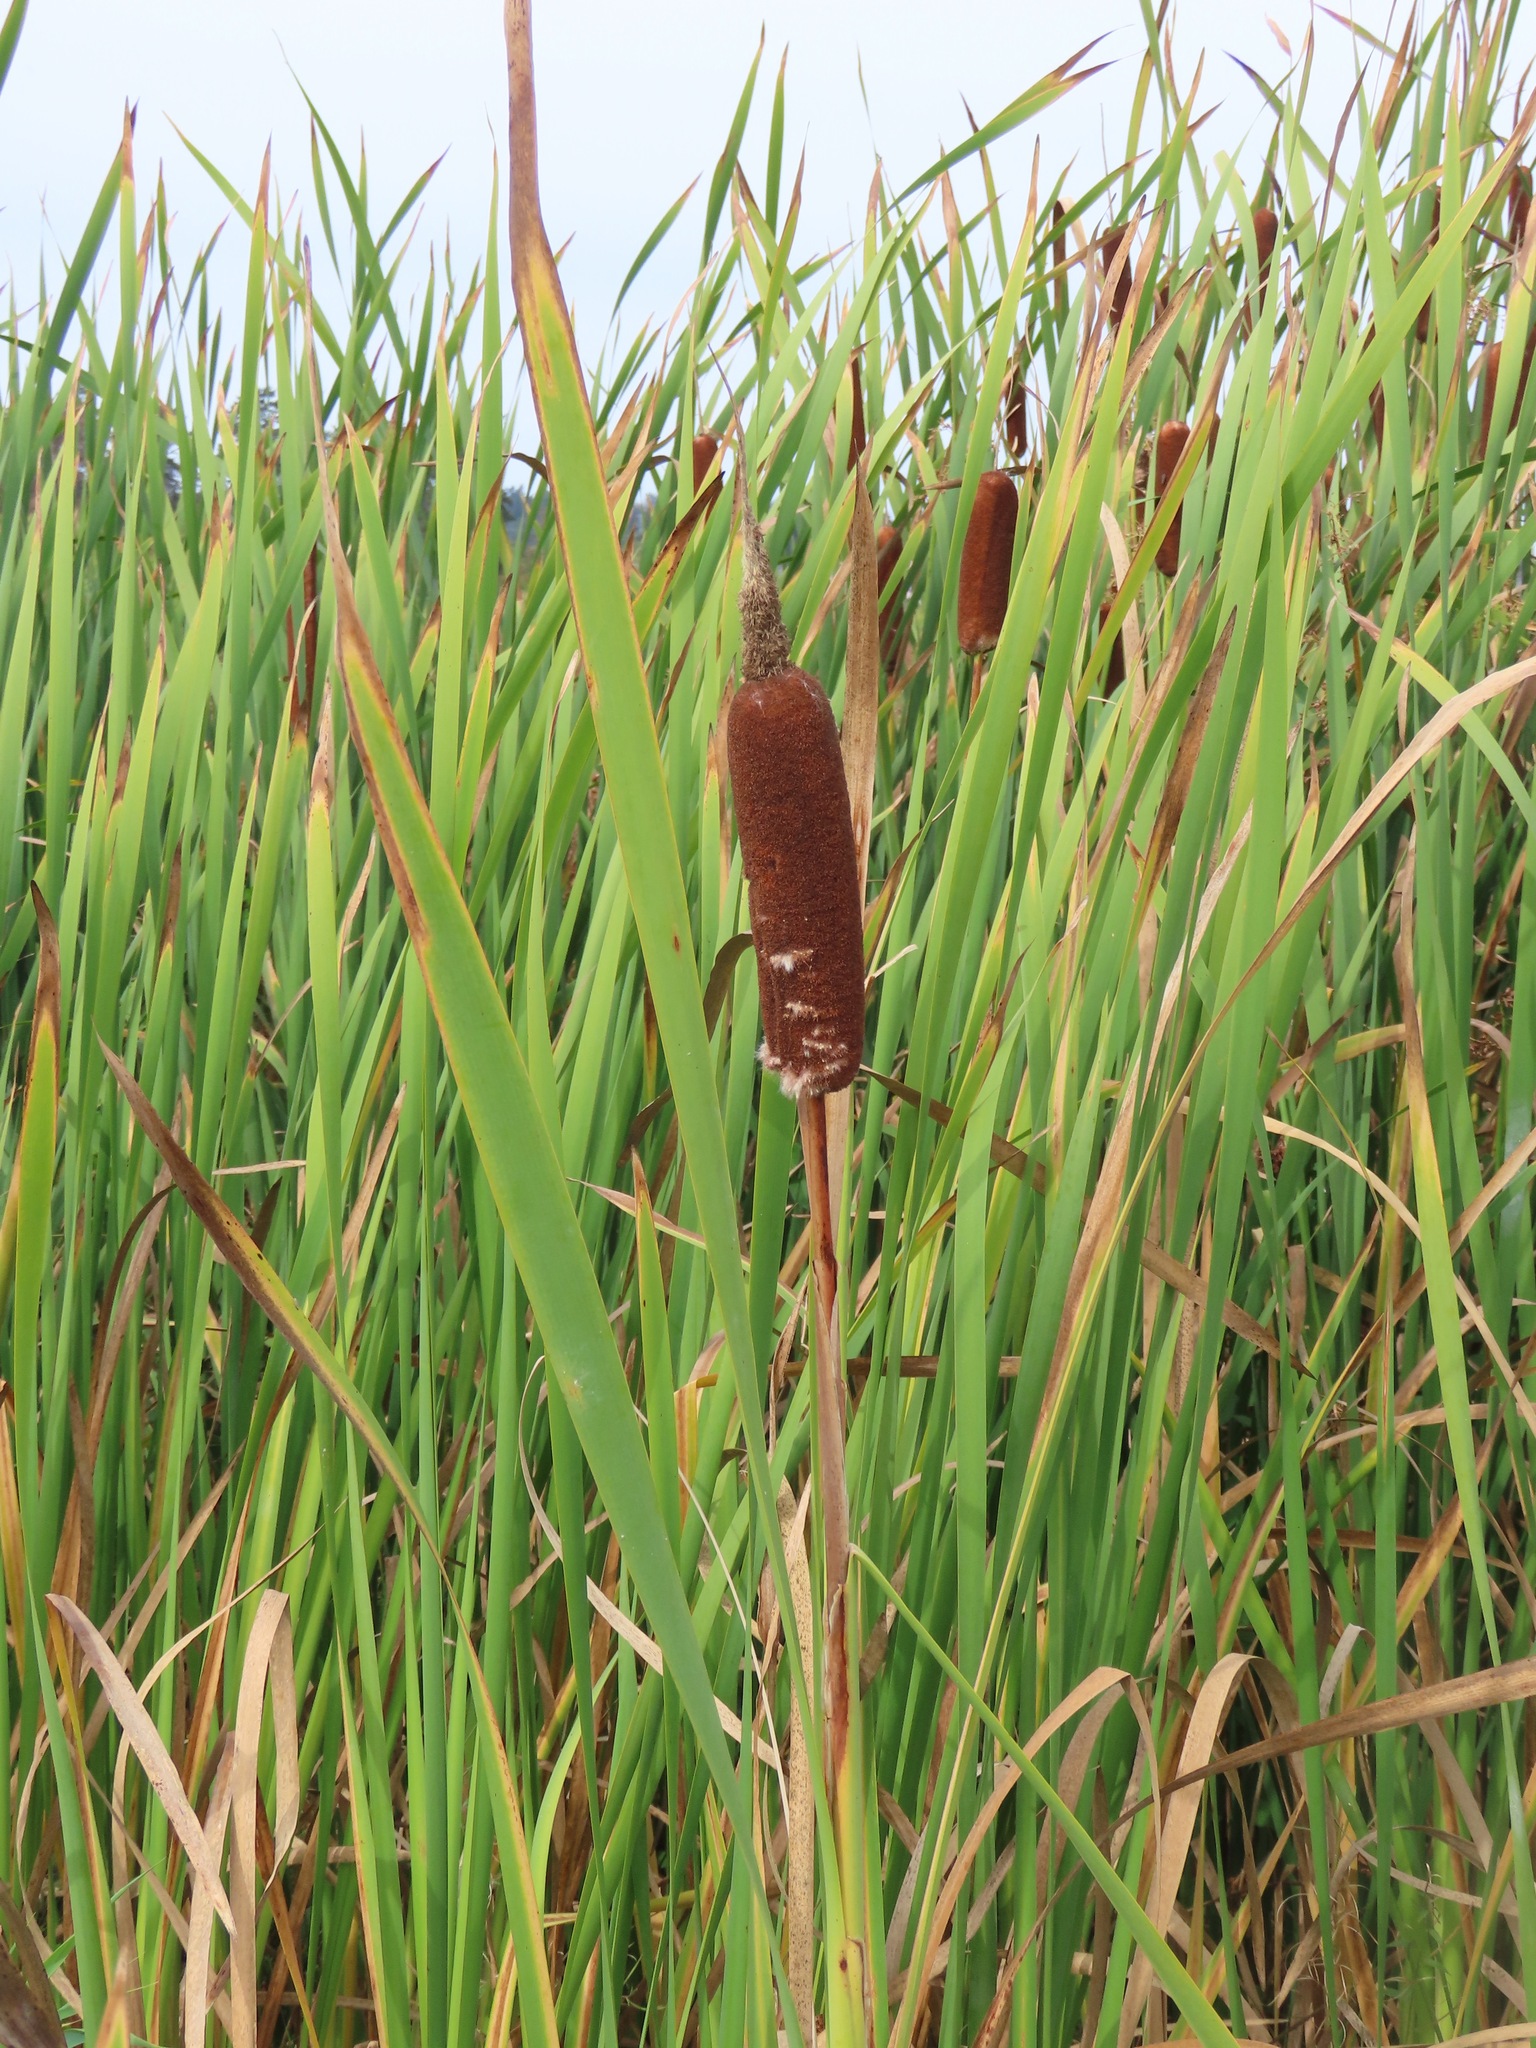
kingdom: Plantae
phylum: Tracheophyta
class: Liliopsida
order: Poales
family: Typhaceae
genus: Typha
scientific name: Typha latifolia
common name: Broadleaf cattail
